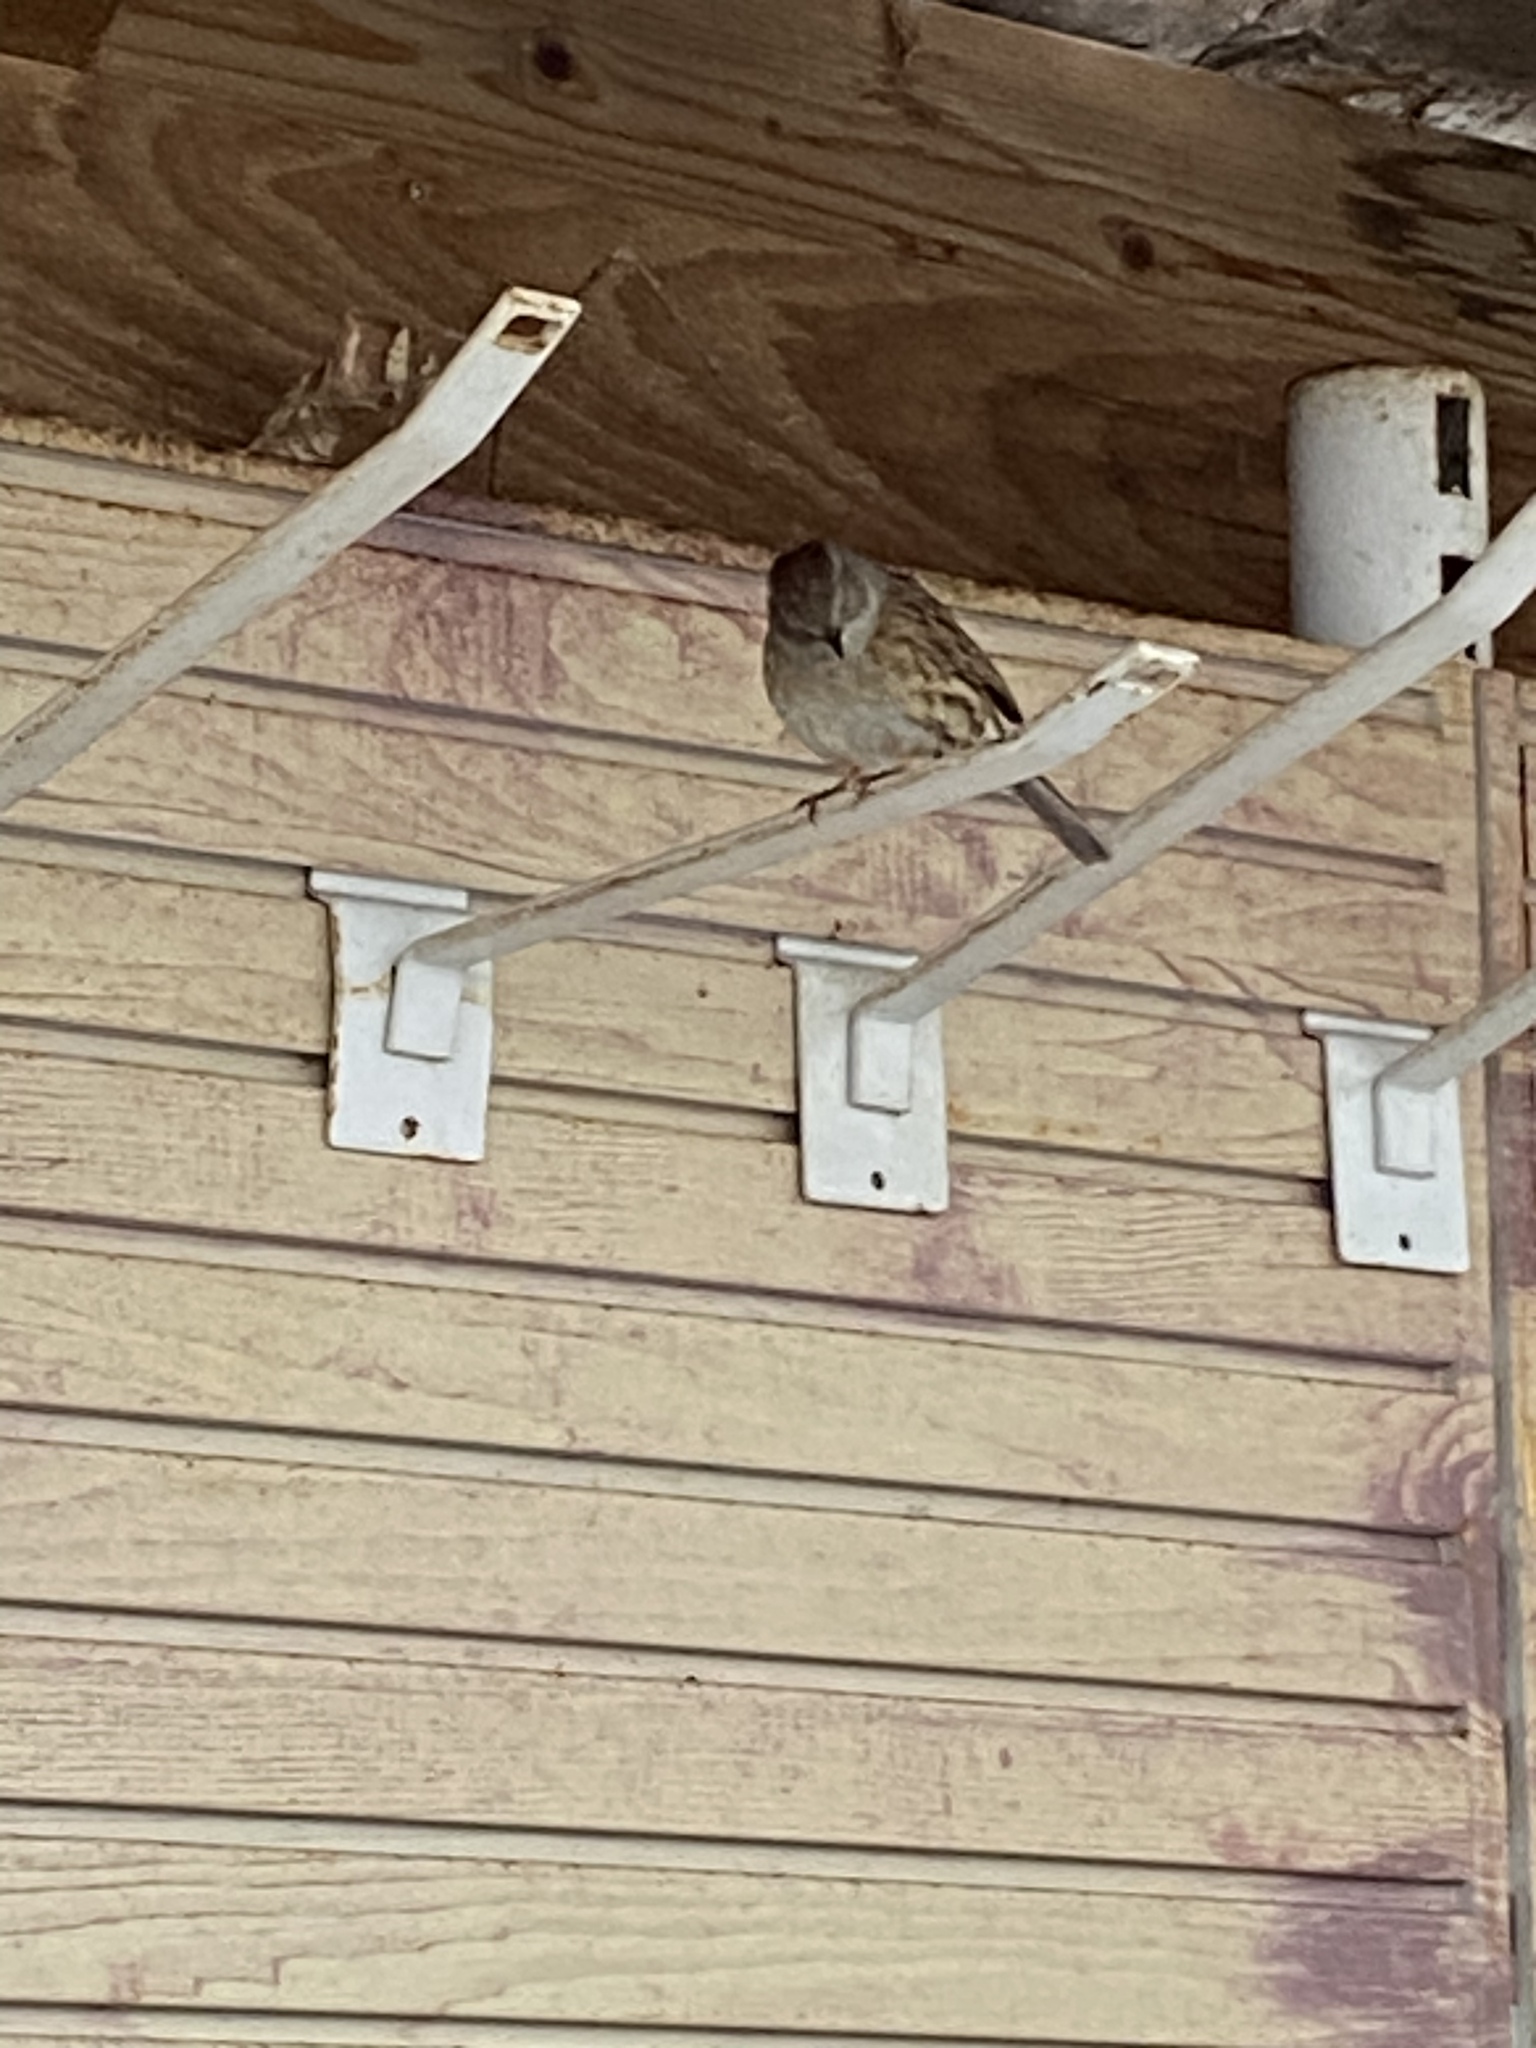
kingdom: Animalia
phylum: Chordata
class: Aves
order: Passeriformes
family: Prunellidae
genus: Prunella
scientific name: Prunella modularis
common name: Dunnock
